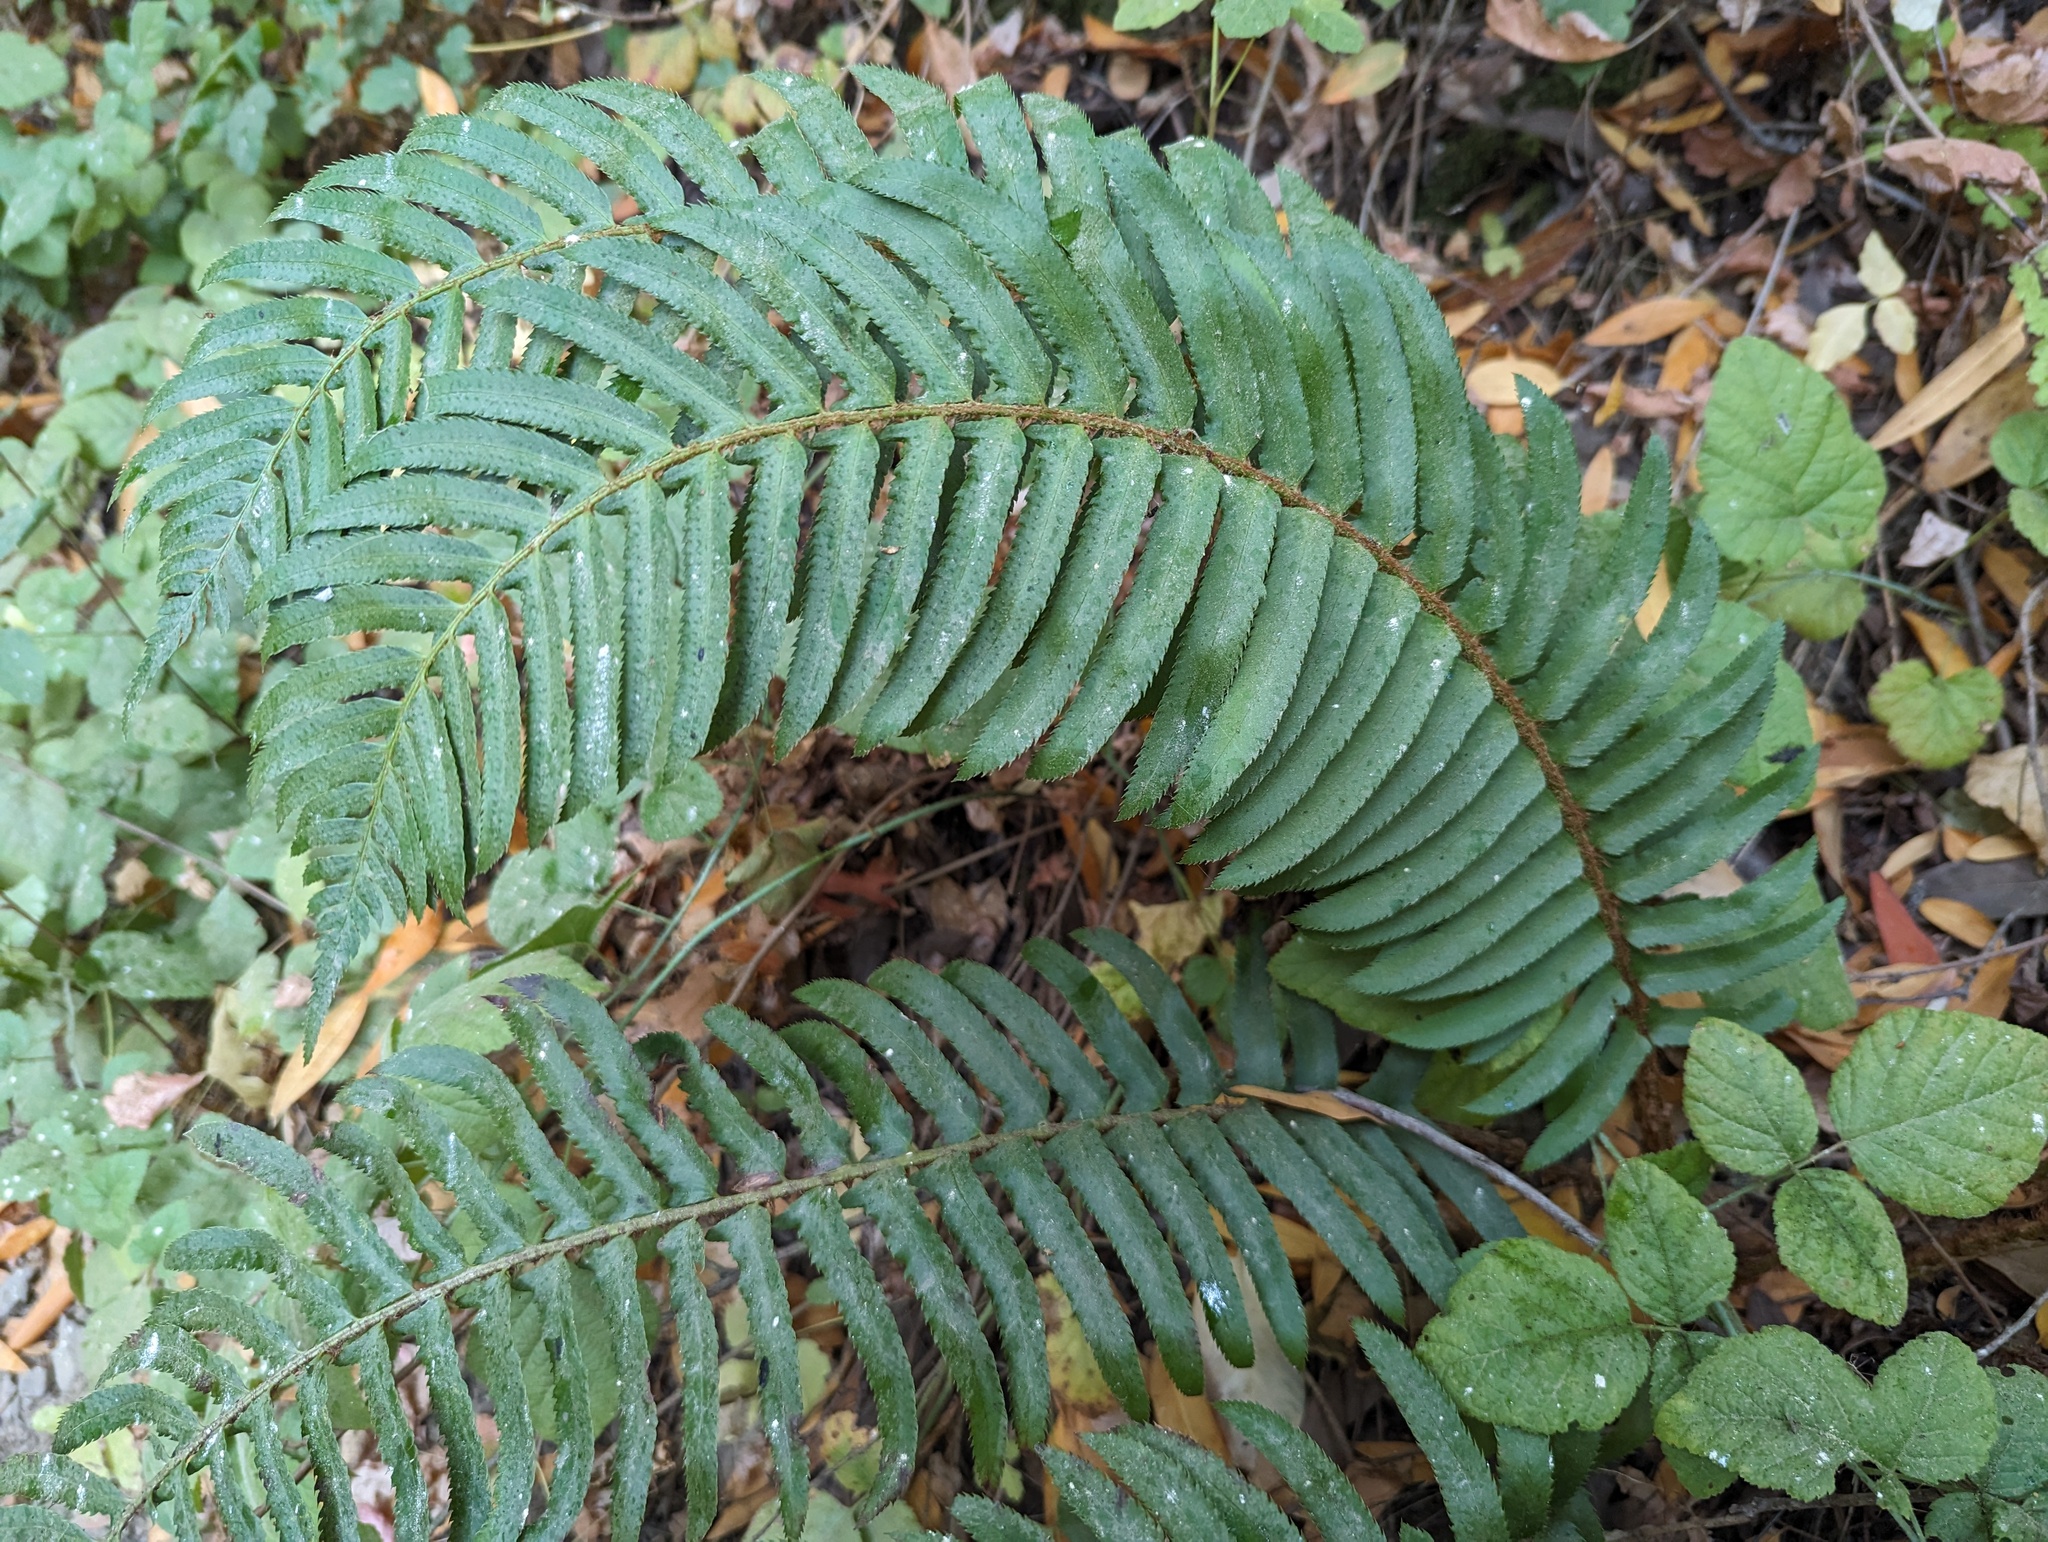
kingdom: Plantae
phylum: Tracheophyta
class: Polypodiopsida
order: Polypodiales
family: Dryopteridaceae
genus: Polystichum
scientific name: Polystichum munitum
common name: Western sword-fern
